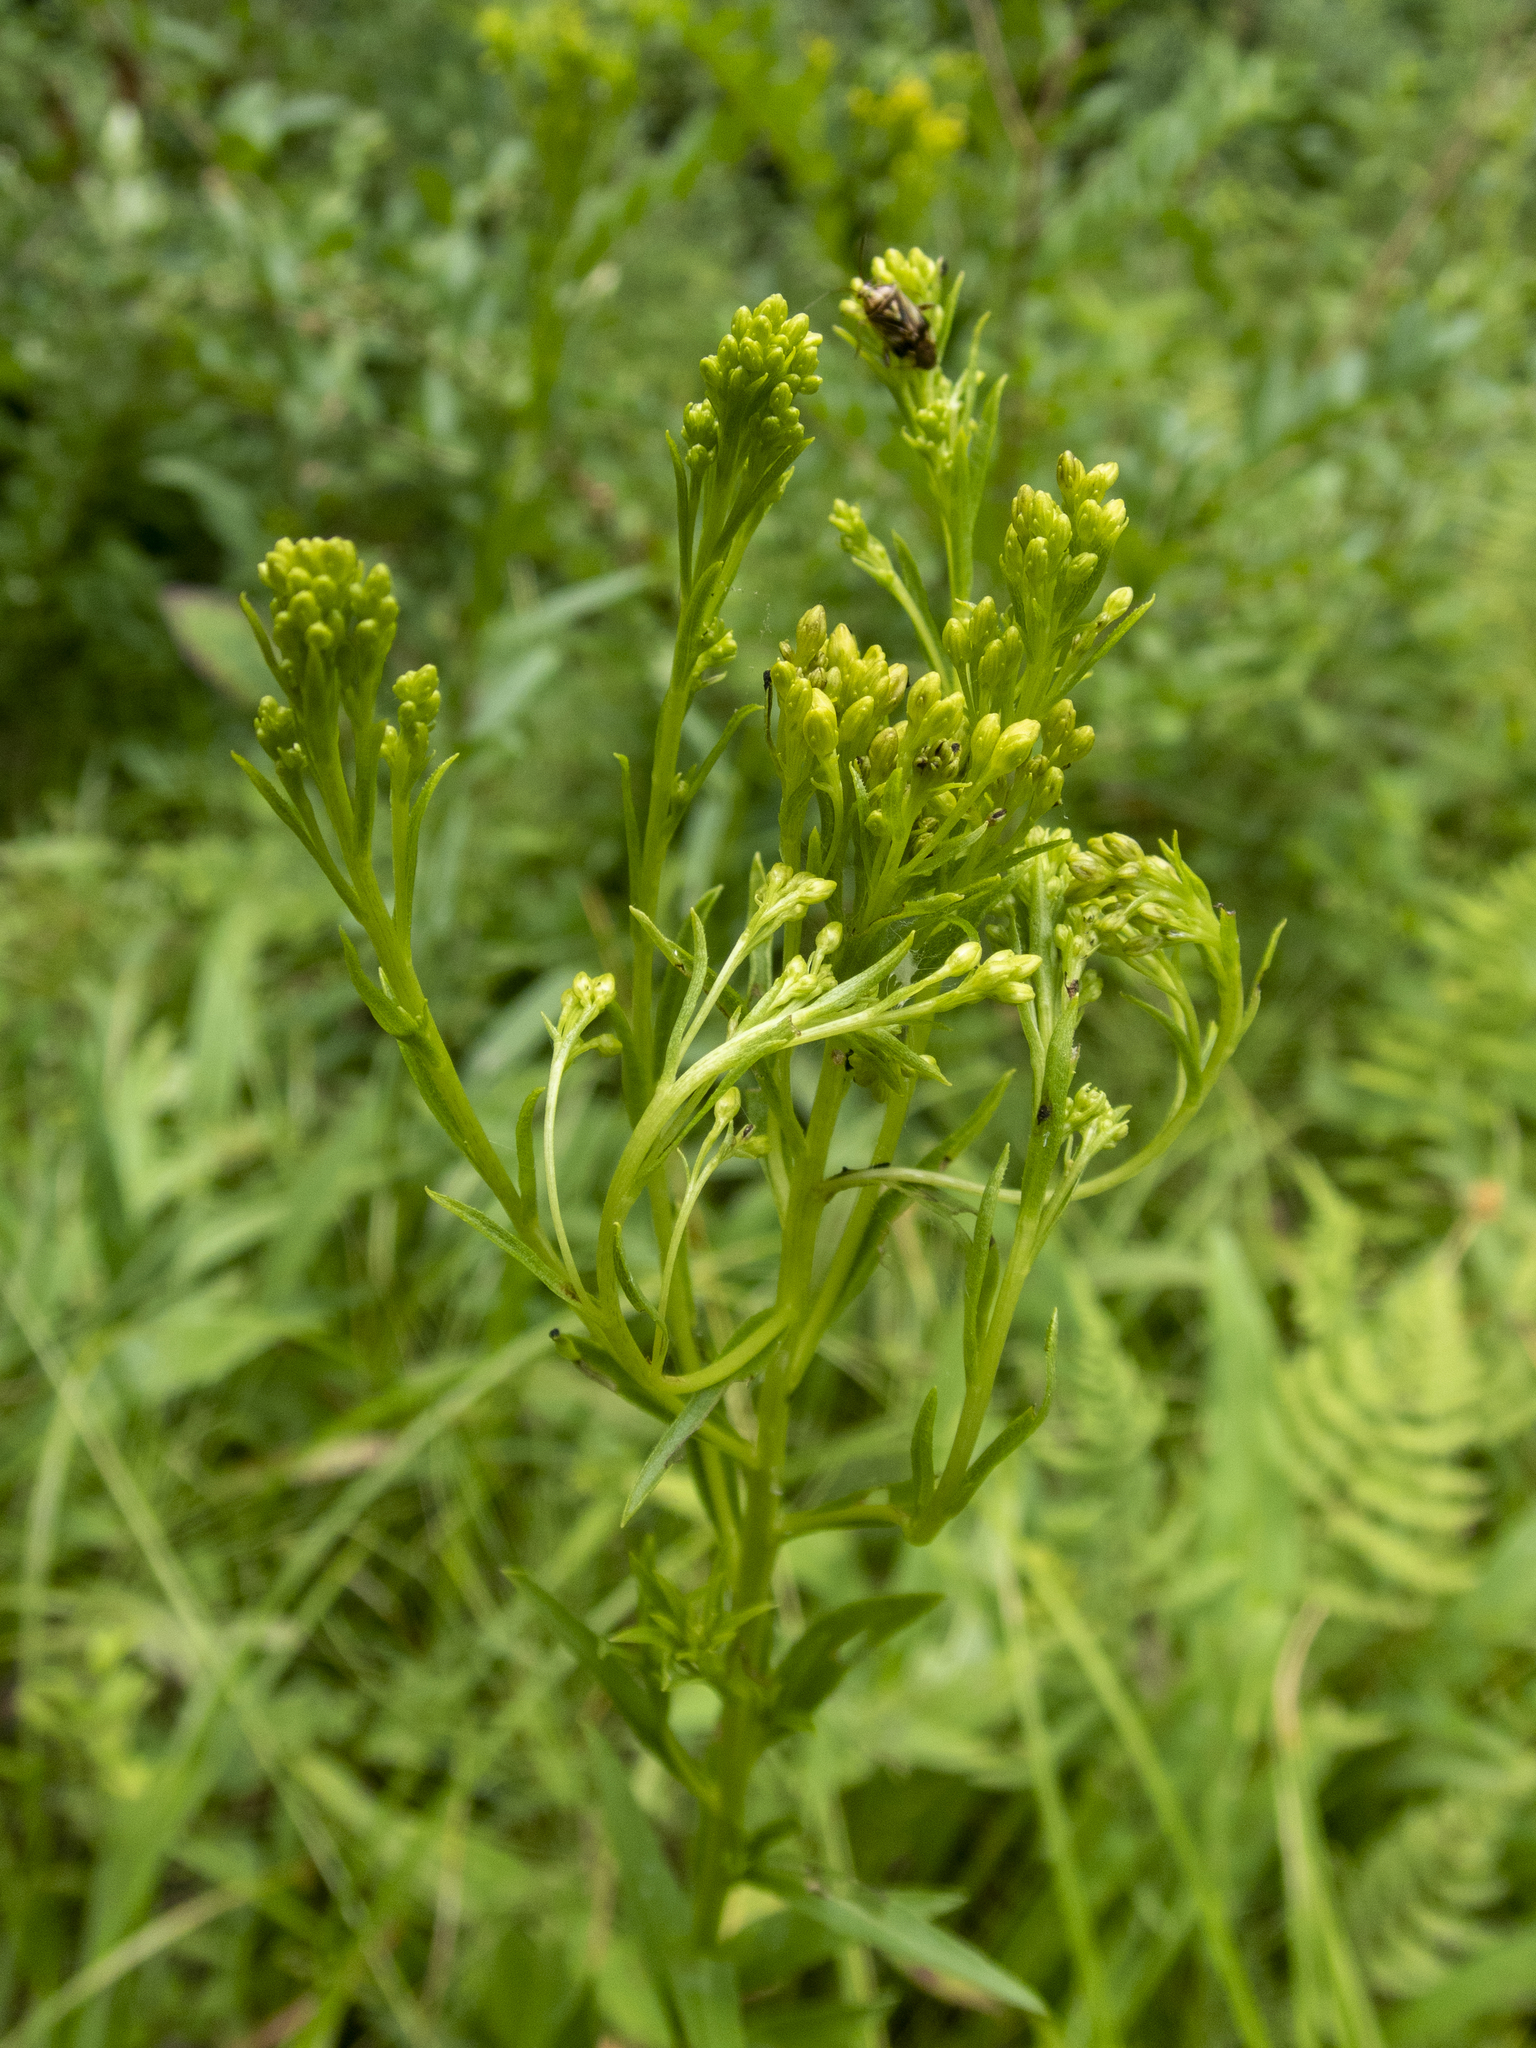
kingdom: Plantae
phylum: Tracheophyta
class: Magnoliopsida
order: Asterales
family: Asteraceae
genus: Solidago
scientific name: Solidago ohioensis
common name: Ohio goldenrod
